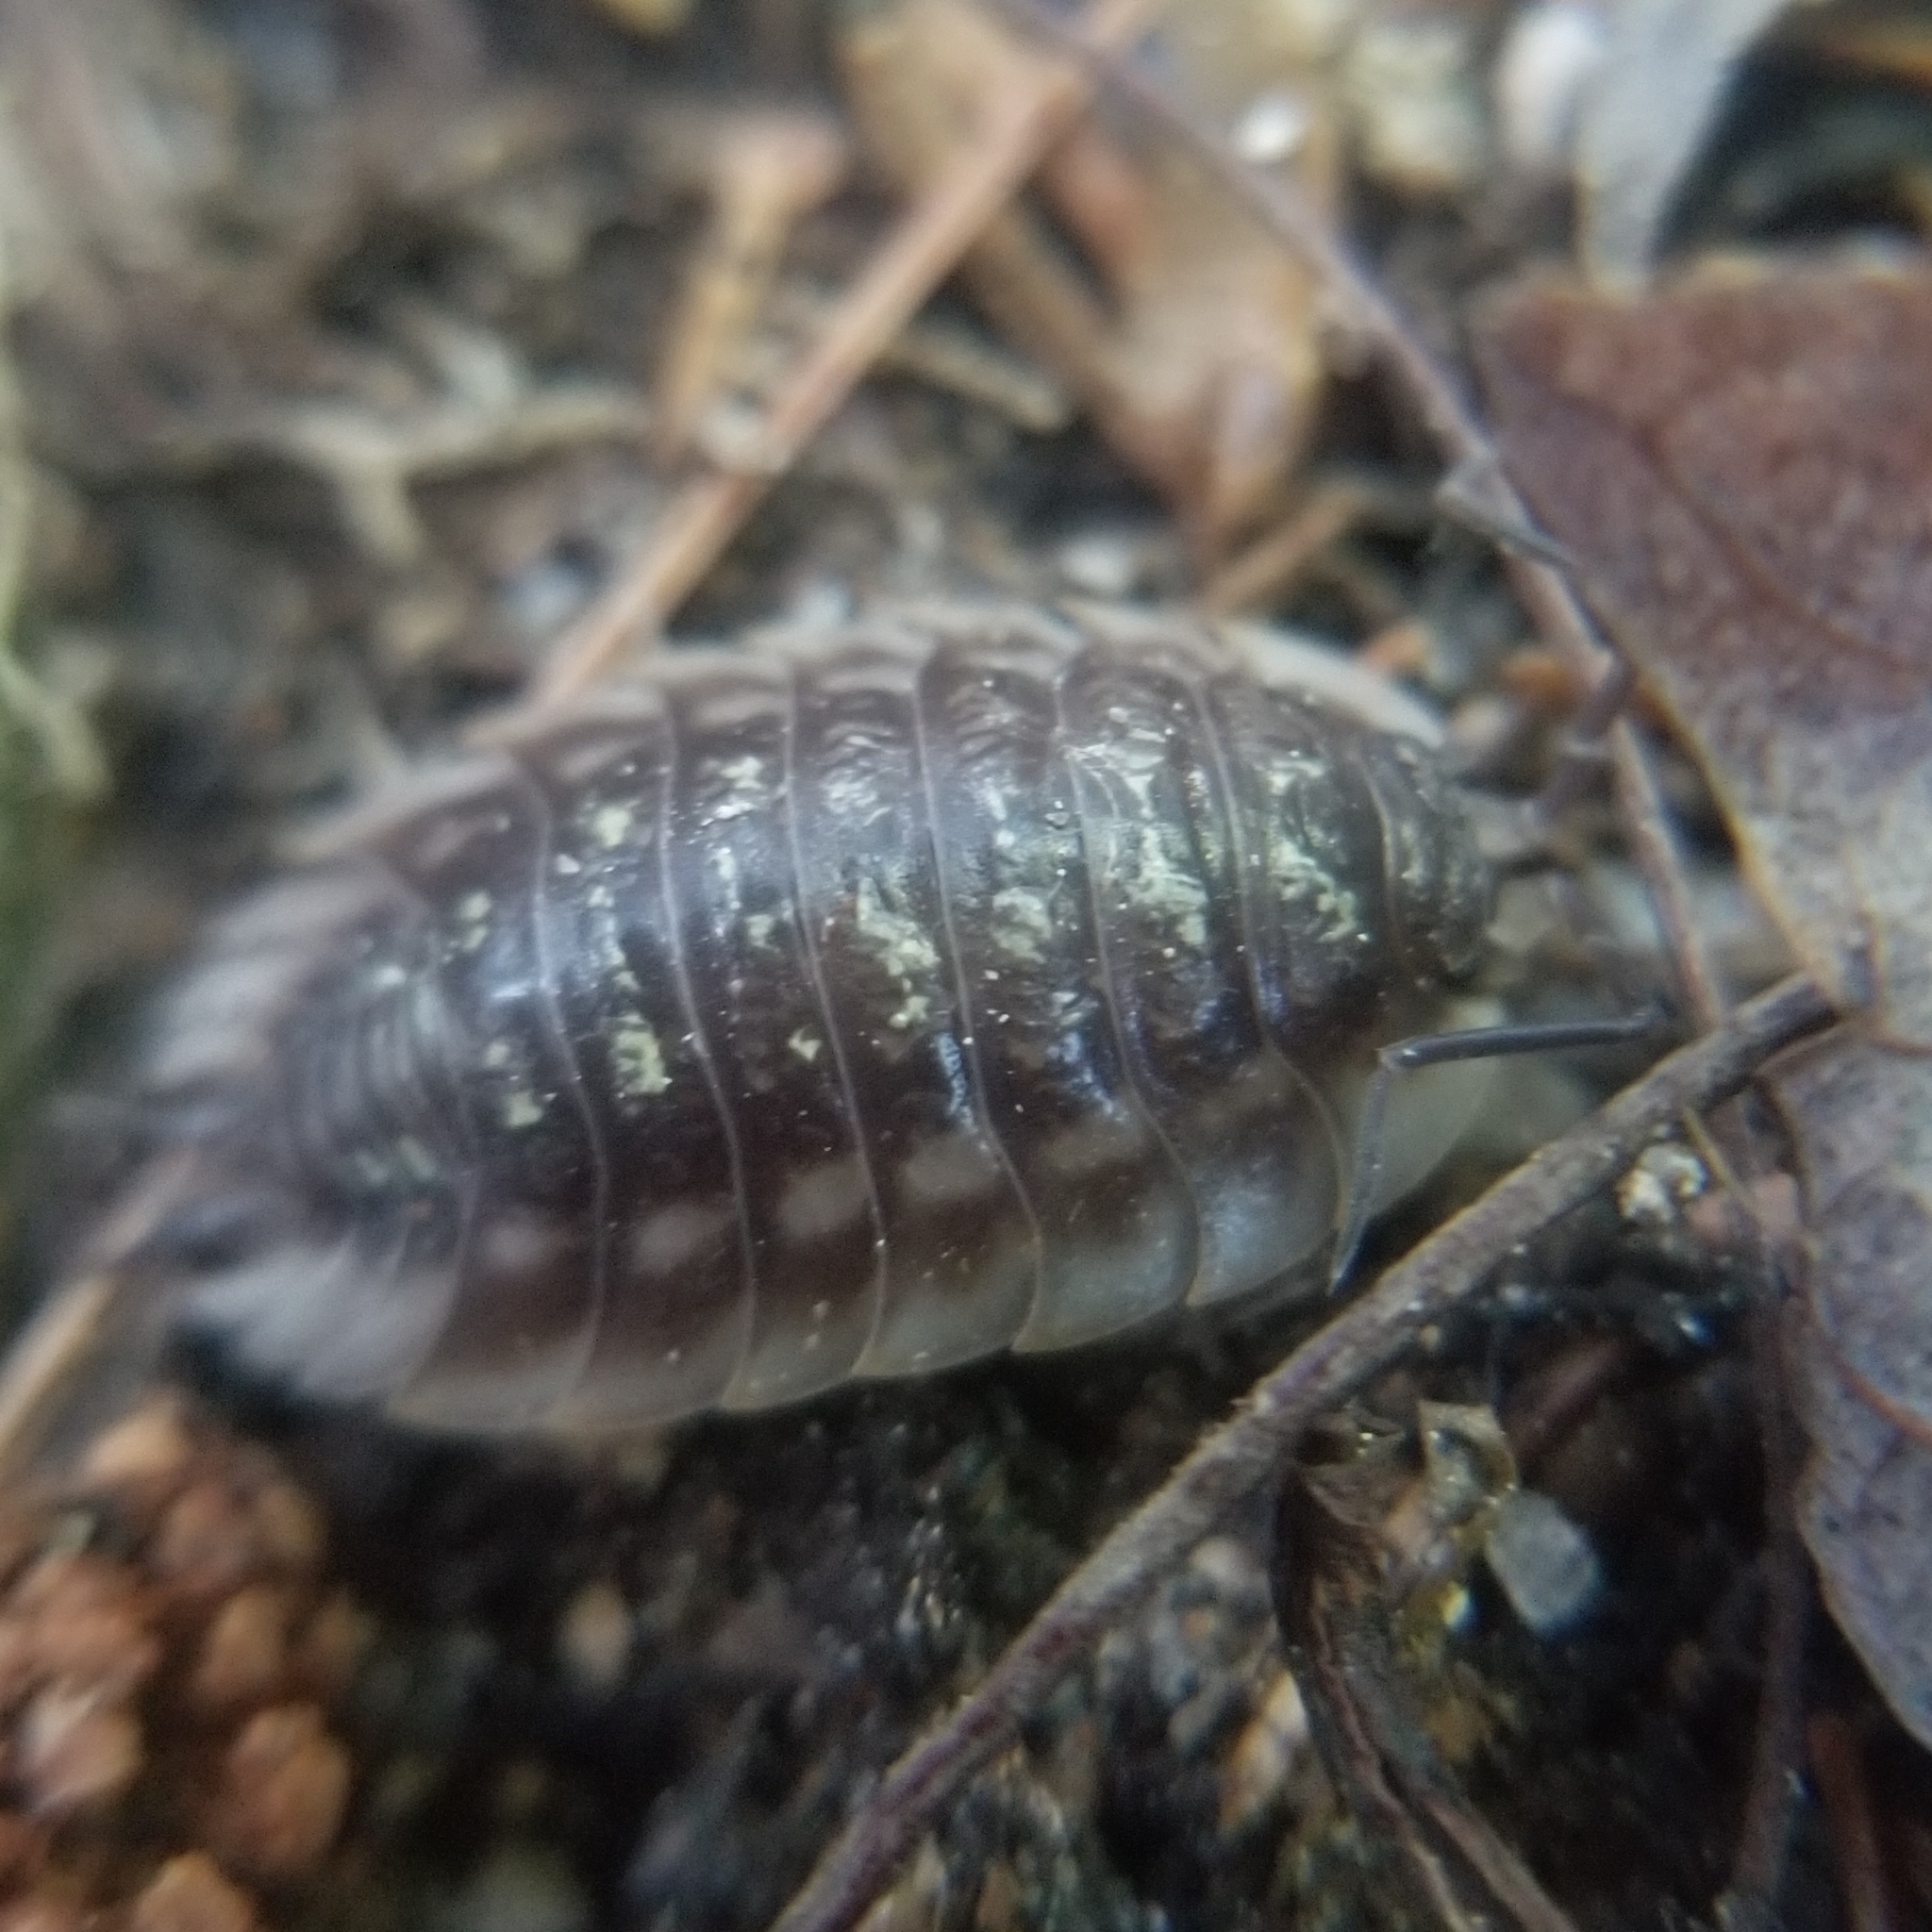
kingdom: Animalia
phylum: Arthropoda
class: Malacostraca
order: Isopoda
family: Oniscidae
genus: Oniscus
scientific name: Oniscus asellus
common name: Common shiny woodlouse
